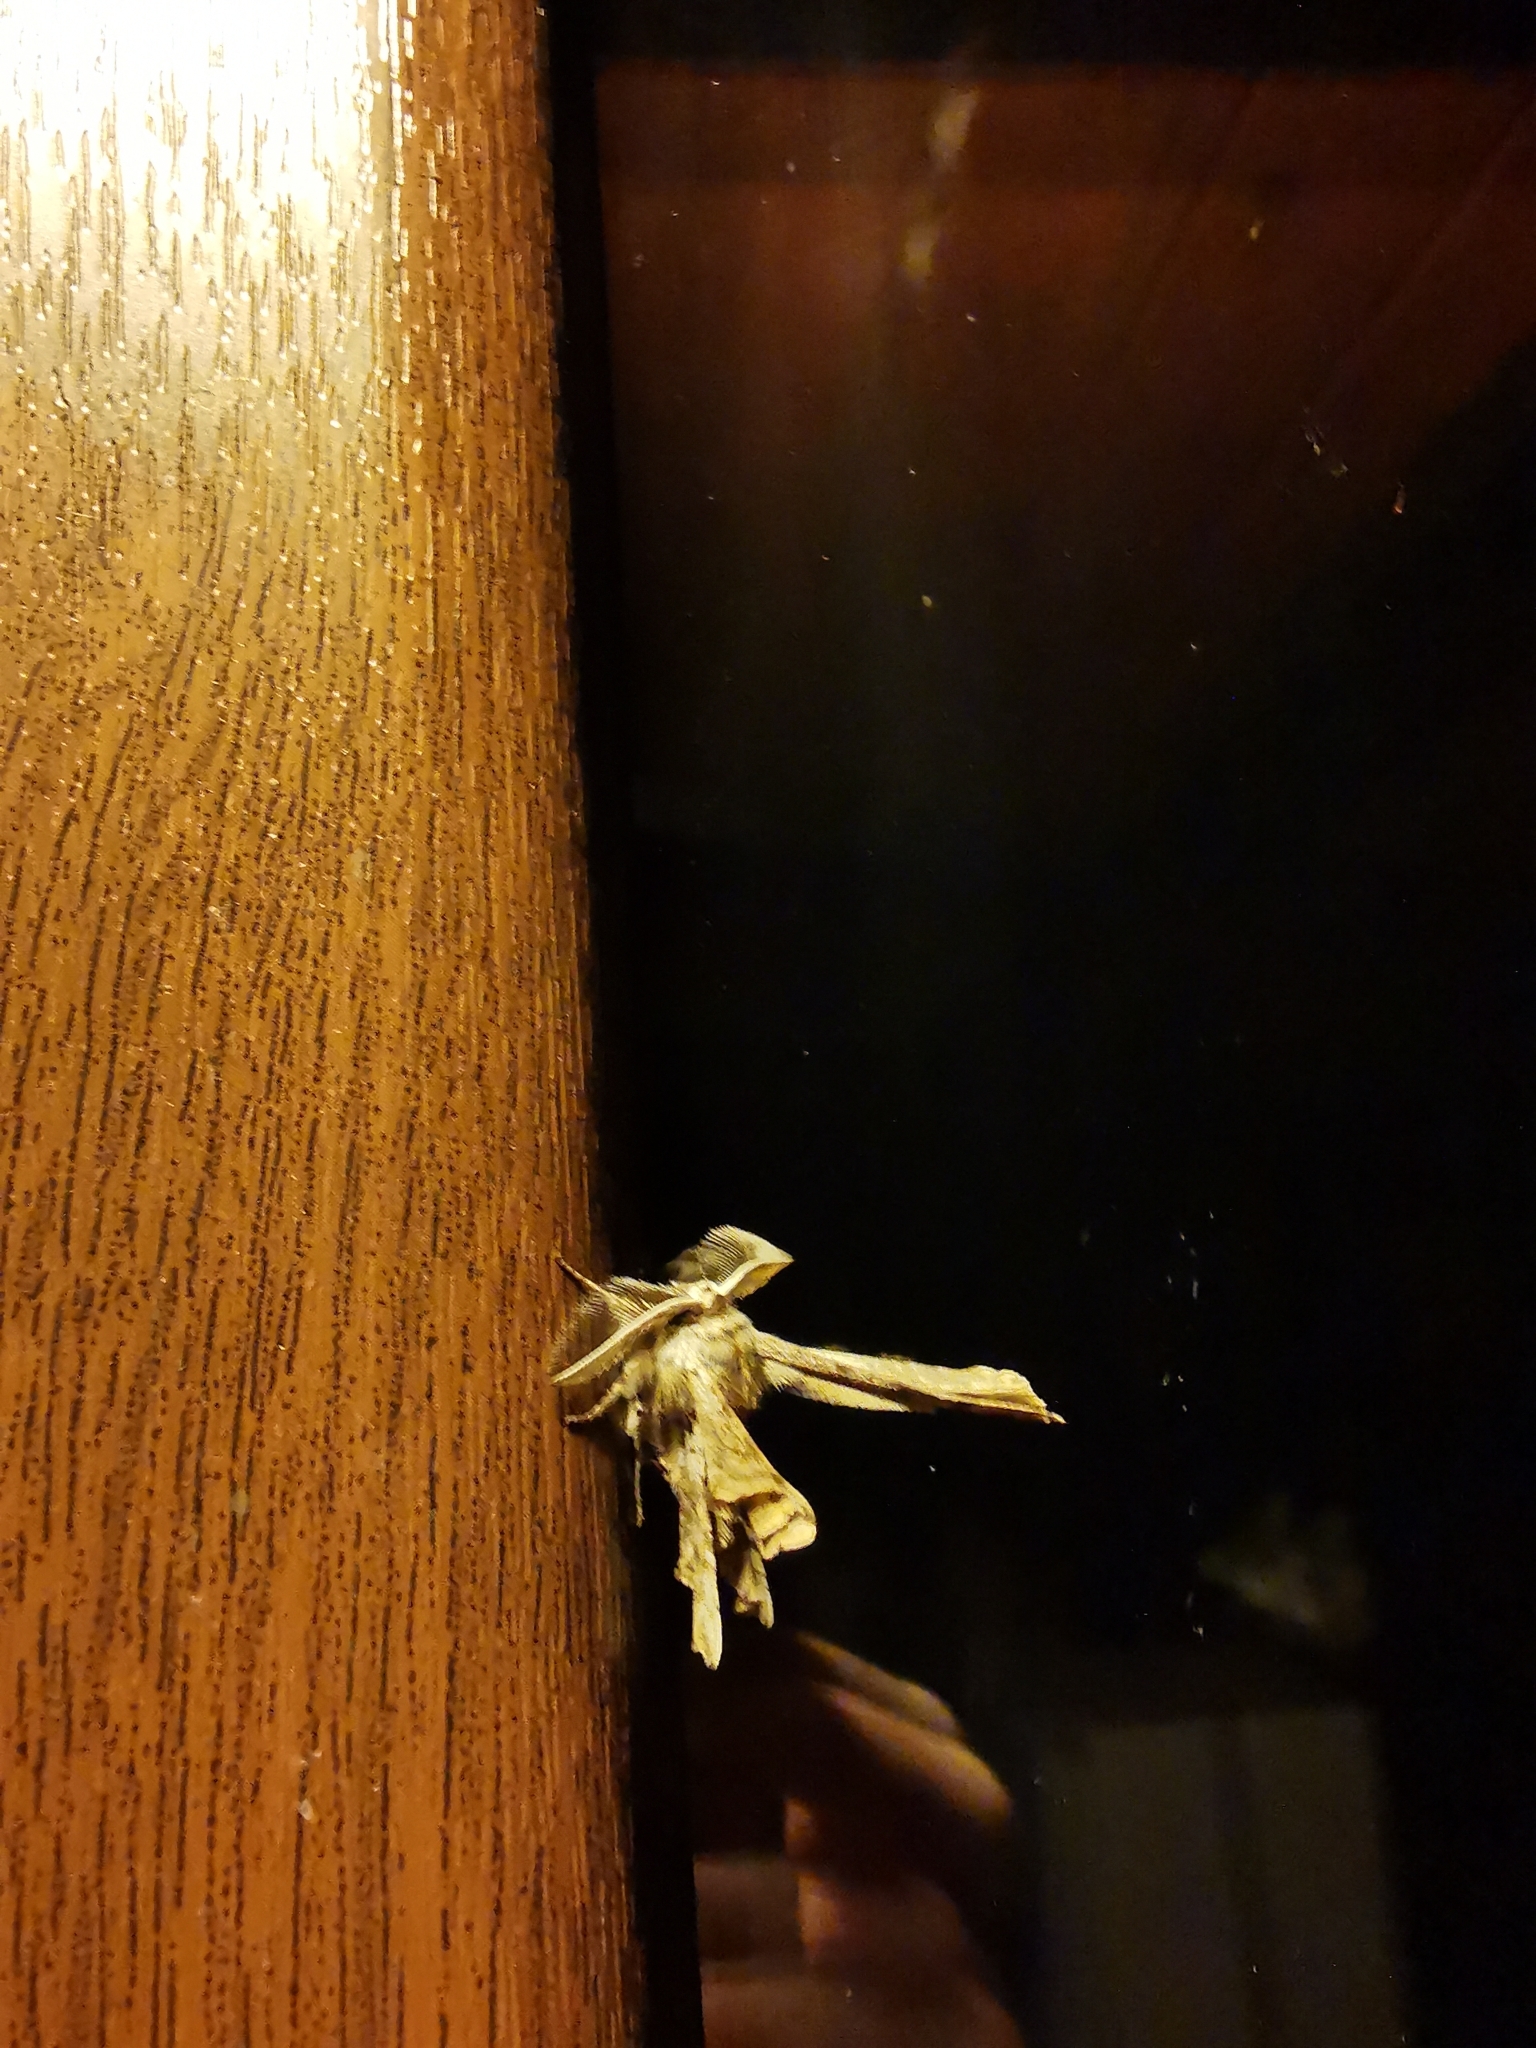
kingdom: Animalia
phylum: Arthropoda
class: Insecta
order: Lepidoptera
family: Geometridae
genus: Apochima
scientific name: Apochima flabellaria
